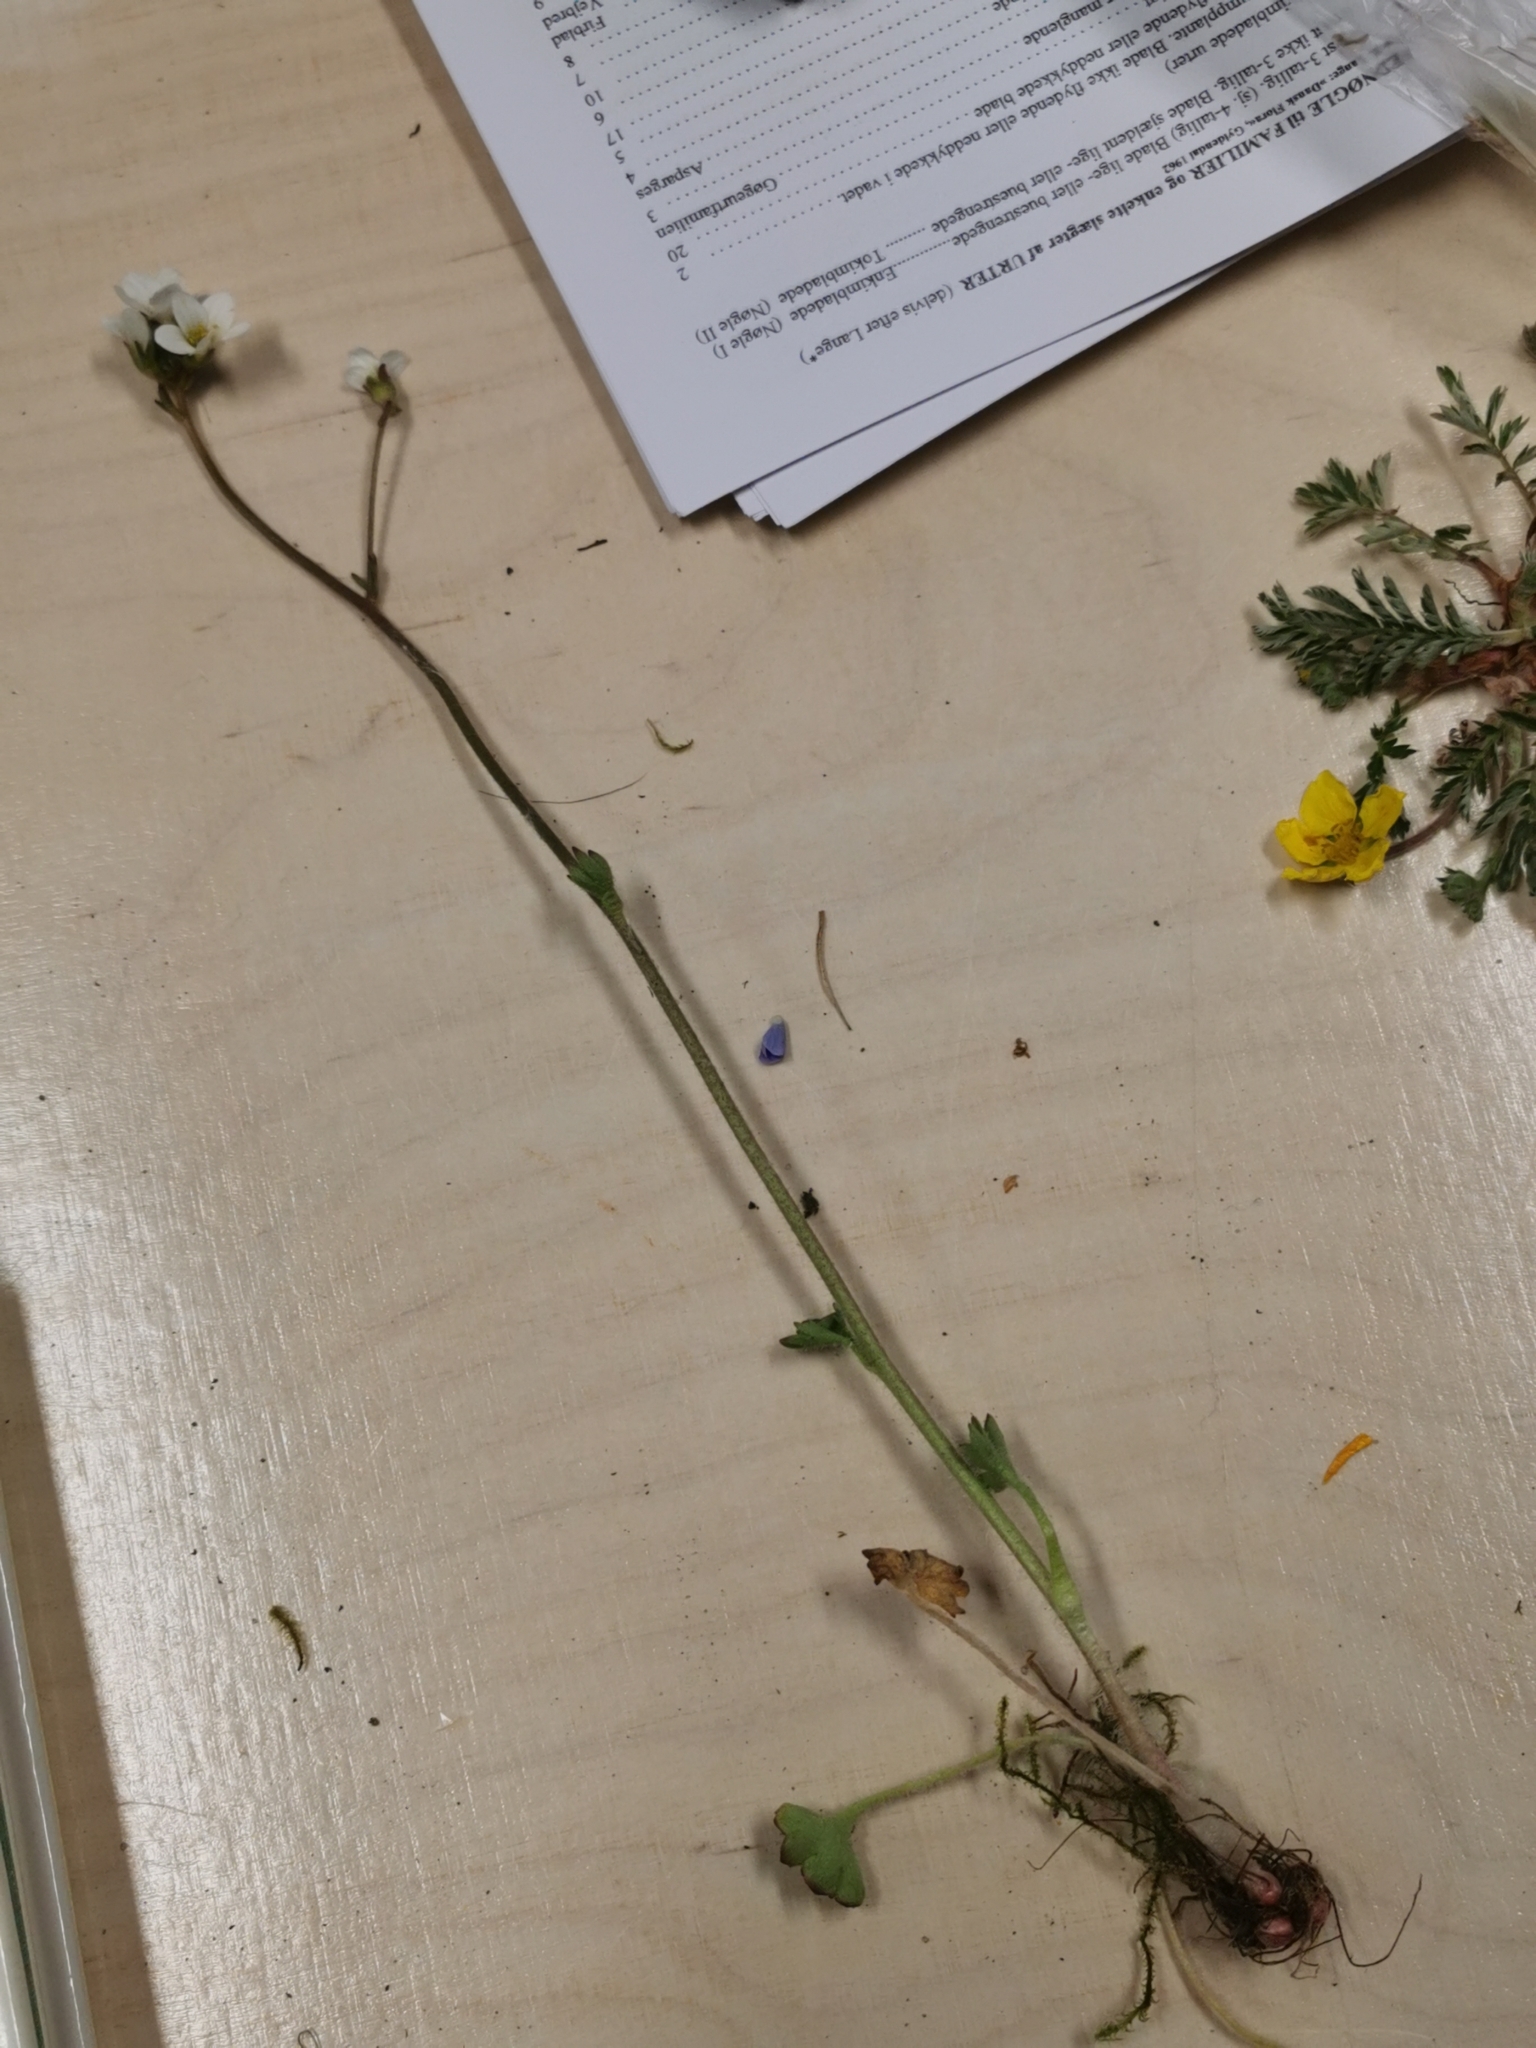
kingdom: Plantae
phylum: Tracheophyta
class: Magnoliopsida
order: Saxifragales
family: Saxifragaceae
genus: Saxifraga
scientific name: Saxifraga granulata
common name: Meadow saxifrage
